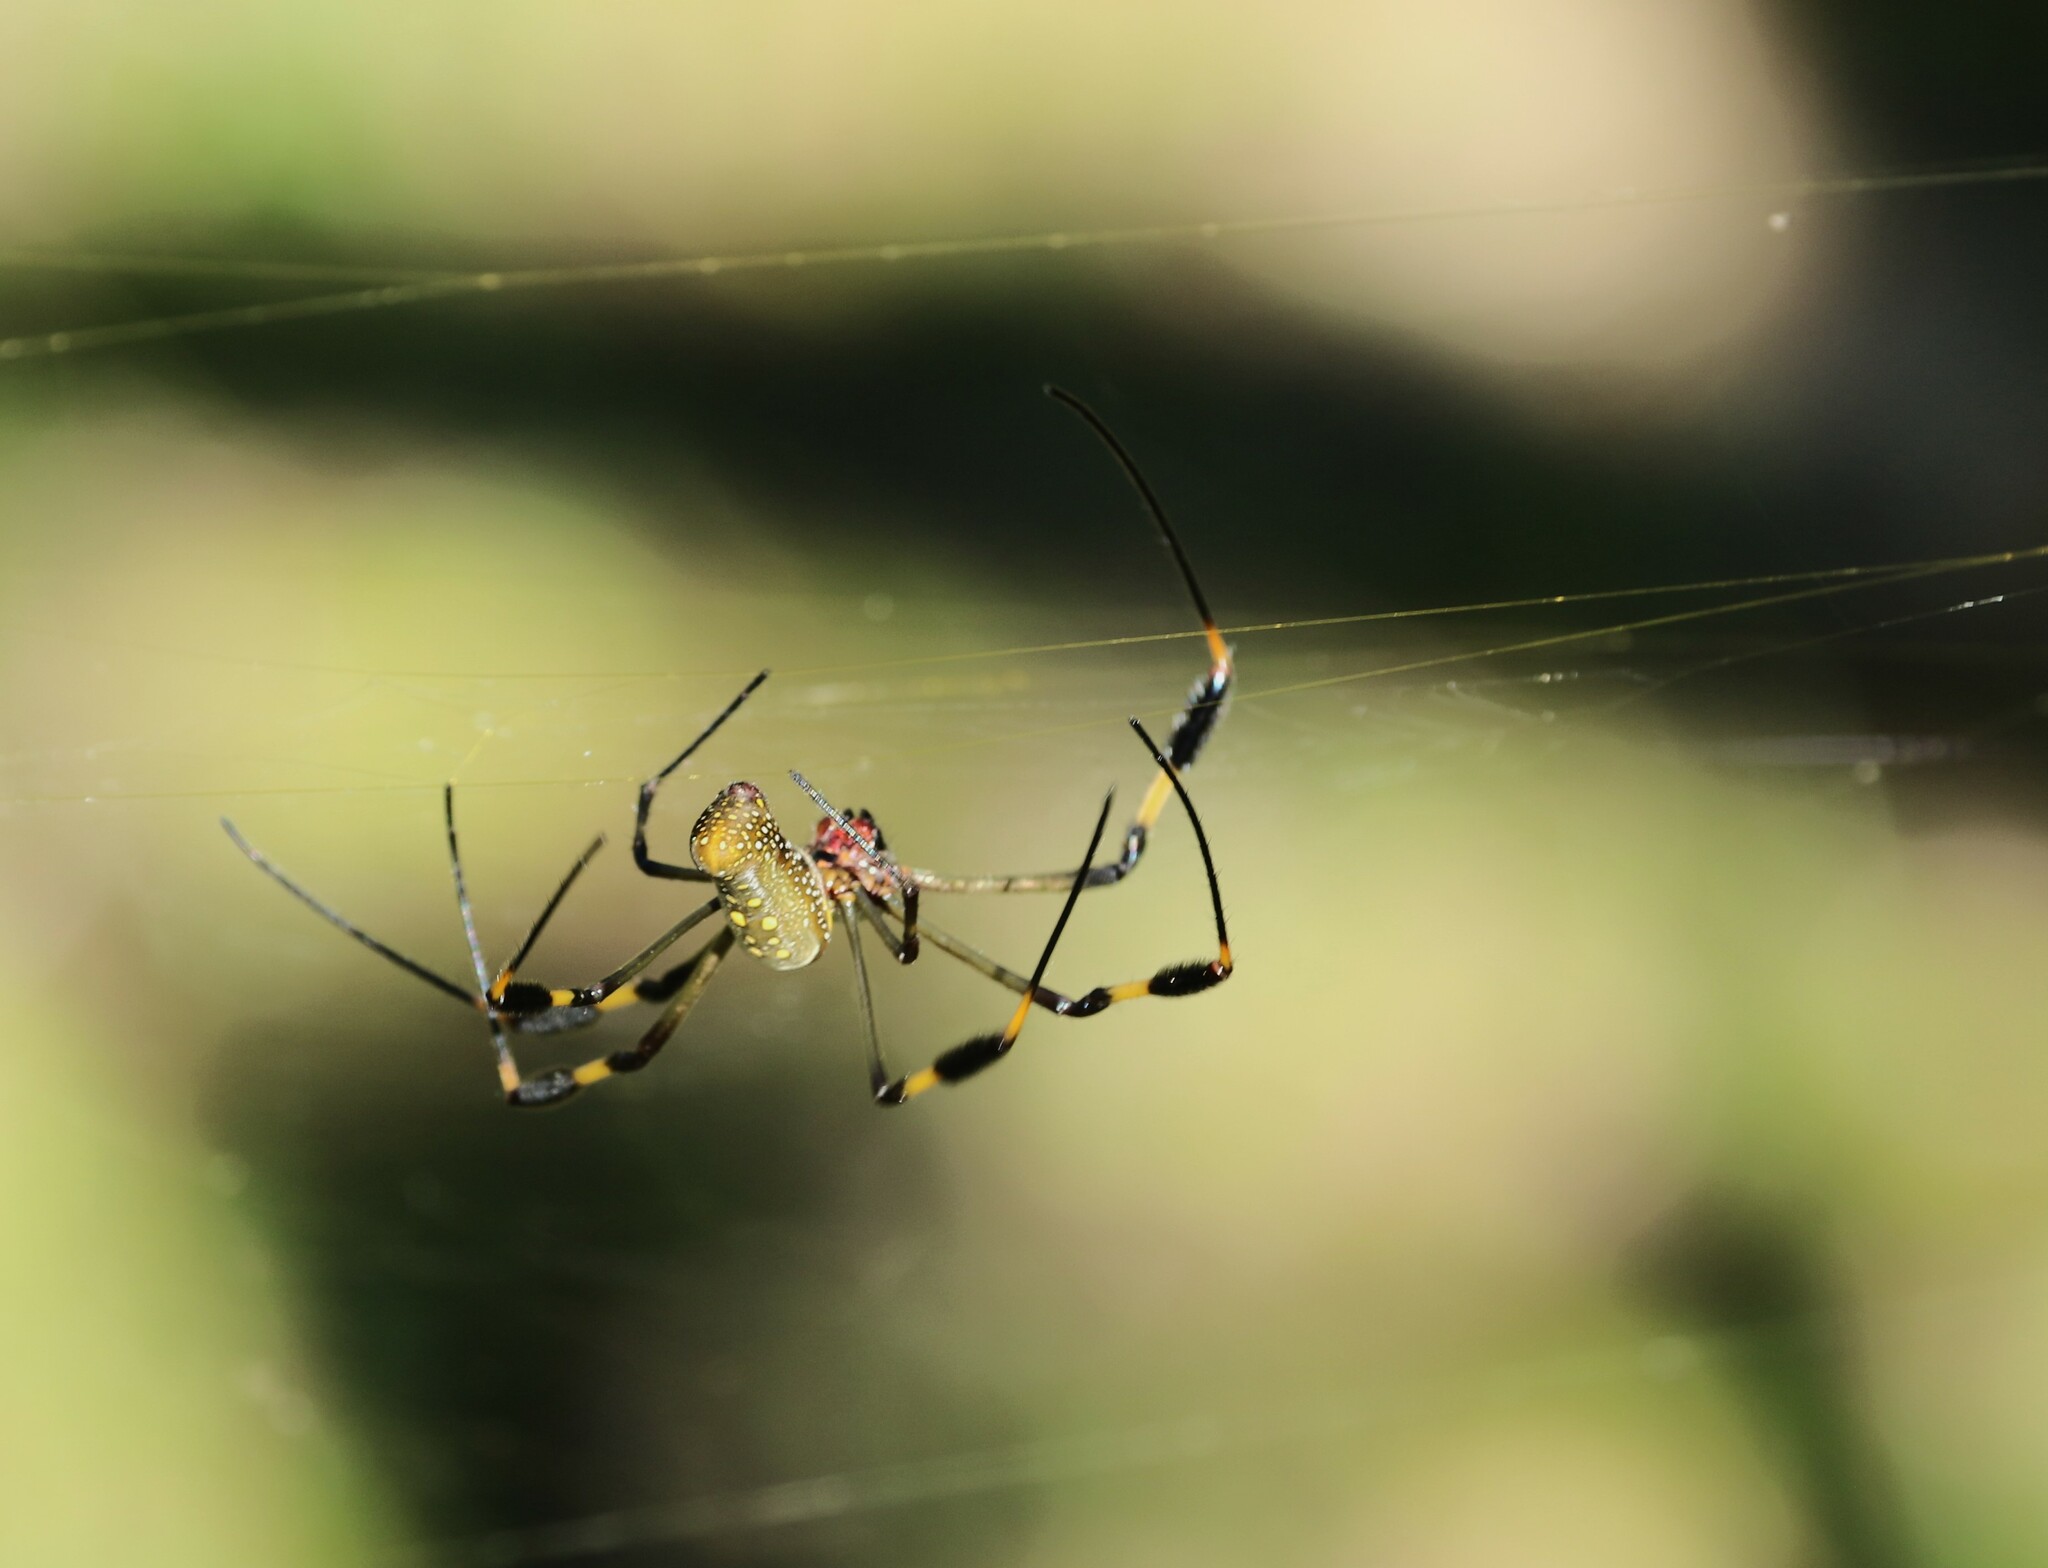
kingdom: Animalia
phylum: Arthropoda
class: Arachnida
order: Araneae
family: Araneidae
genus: Trichonephila
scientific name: Trichonephila clavipes
